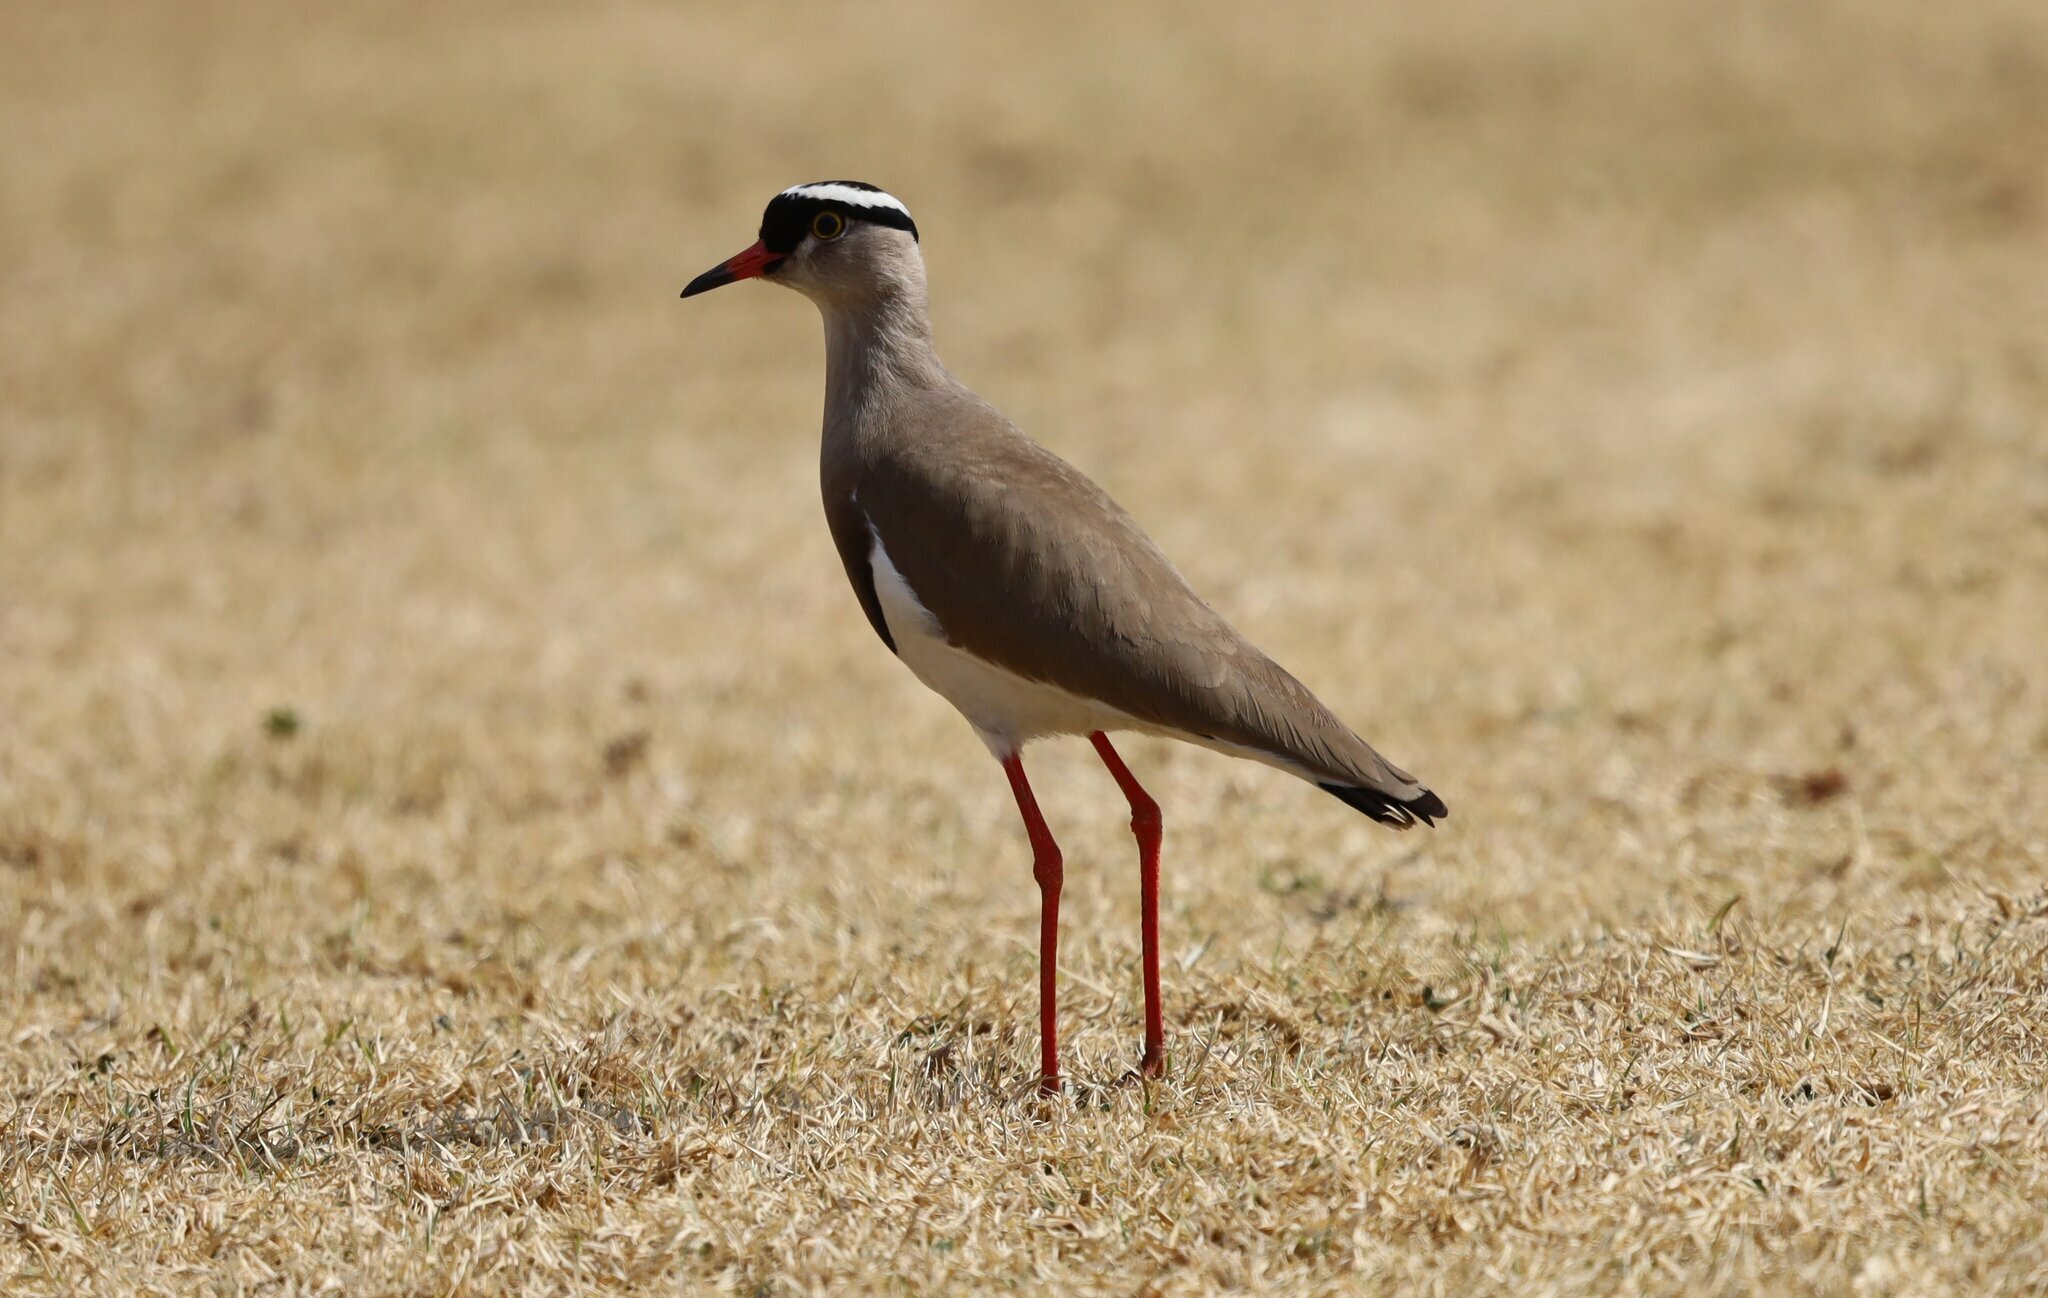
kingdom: Animalia
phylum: Chordata
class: Aves
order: Charadriiformes
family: Charadriidae
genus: Vanellus
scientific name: Vanellus coronatus
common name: Crowned lapwing
